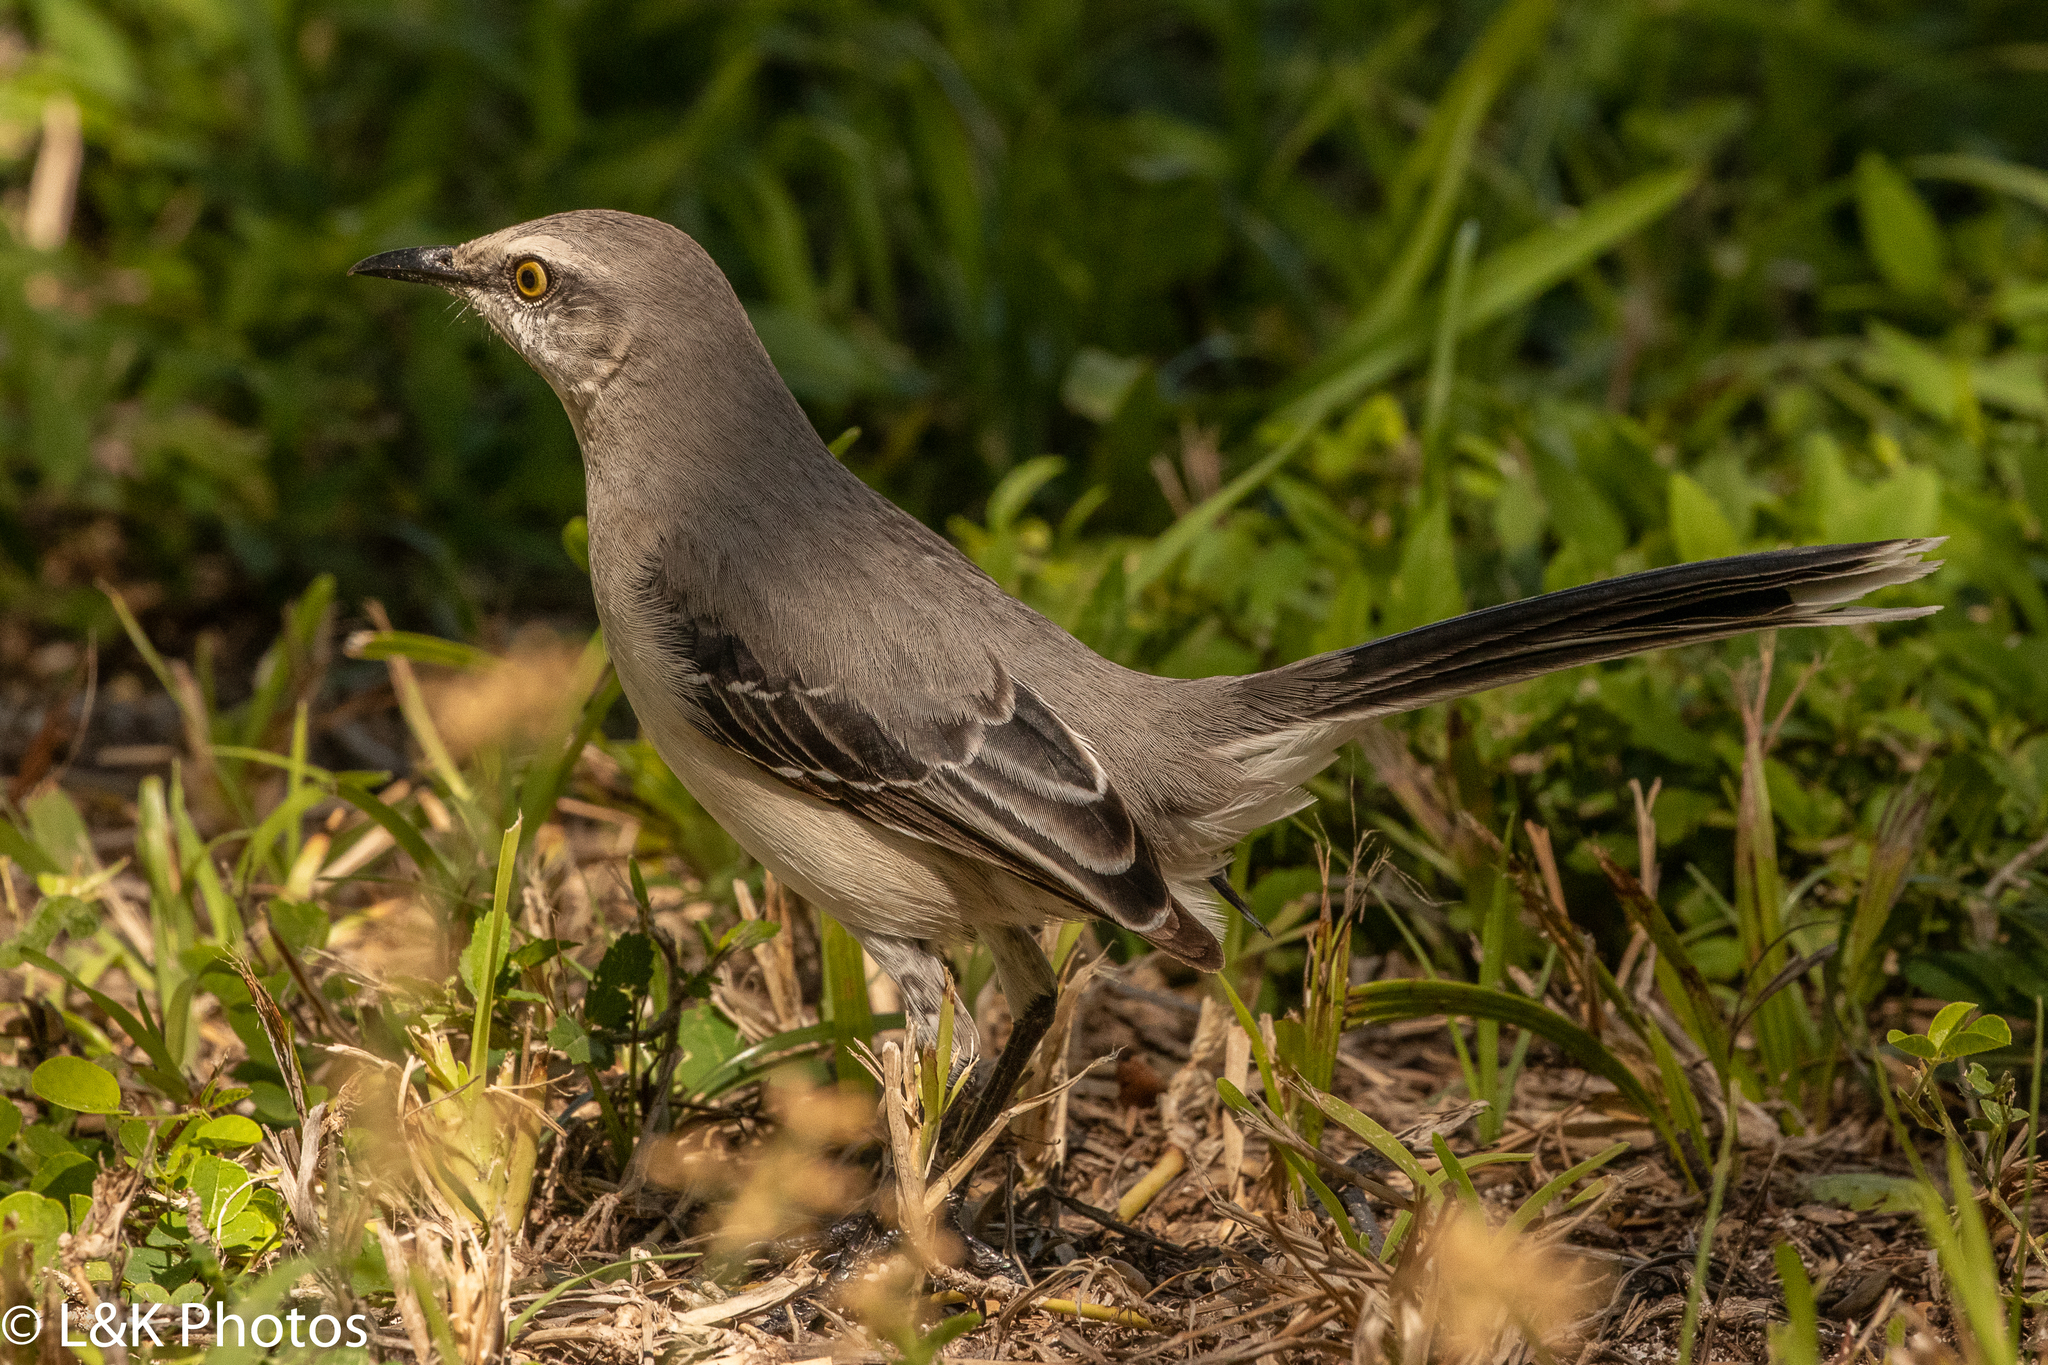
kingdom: Animalia
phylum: Chordata
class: Aves
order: Passeriformes
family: Mimidae
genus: Mimus
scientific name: Mimus gilvus
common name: Tropical mockingbird
